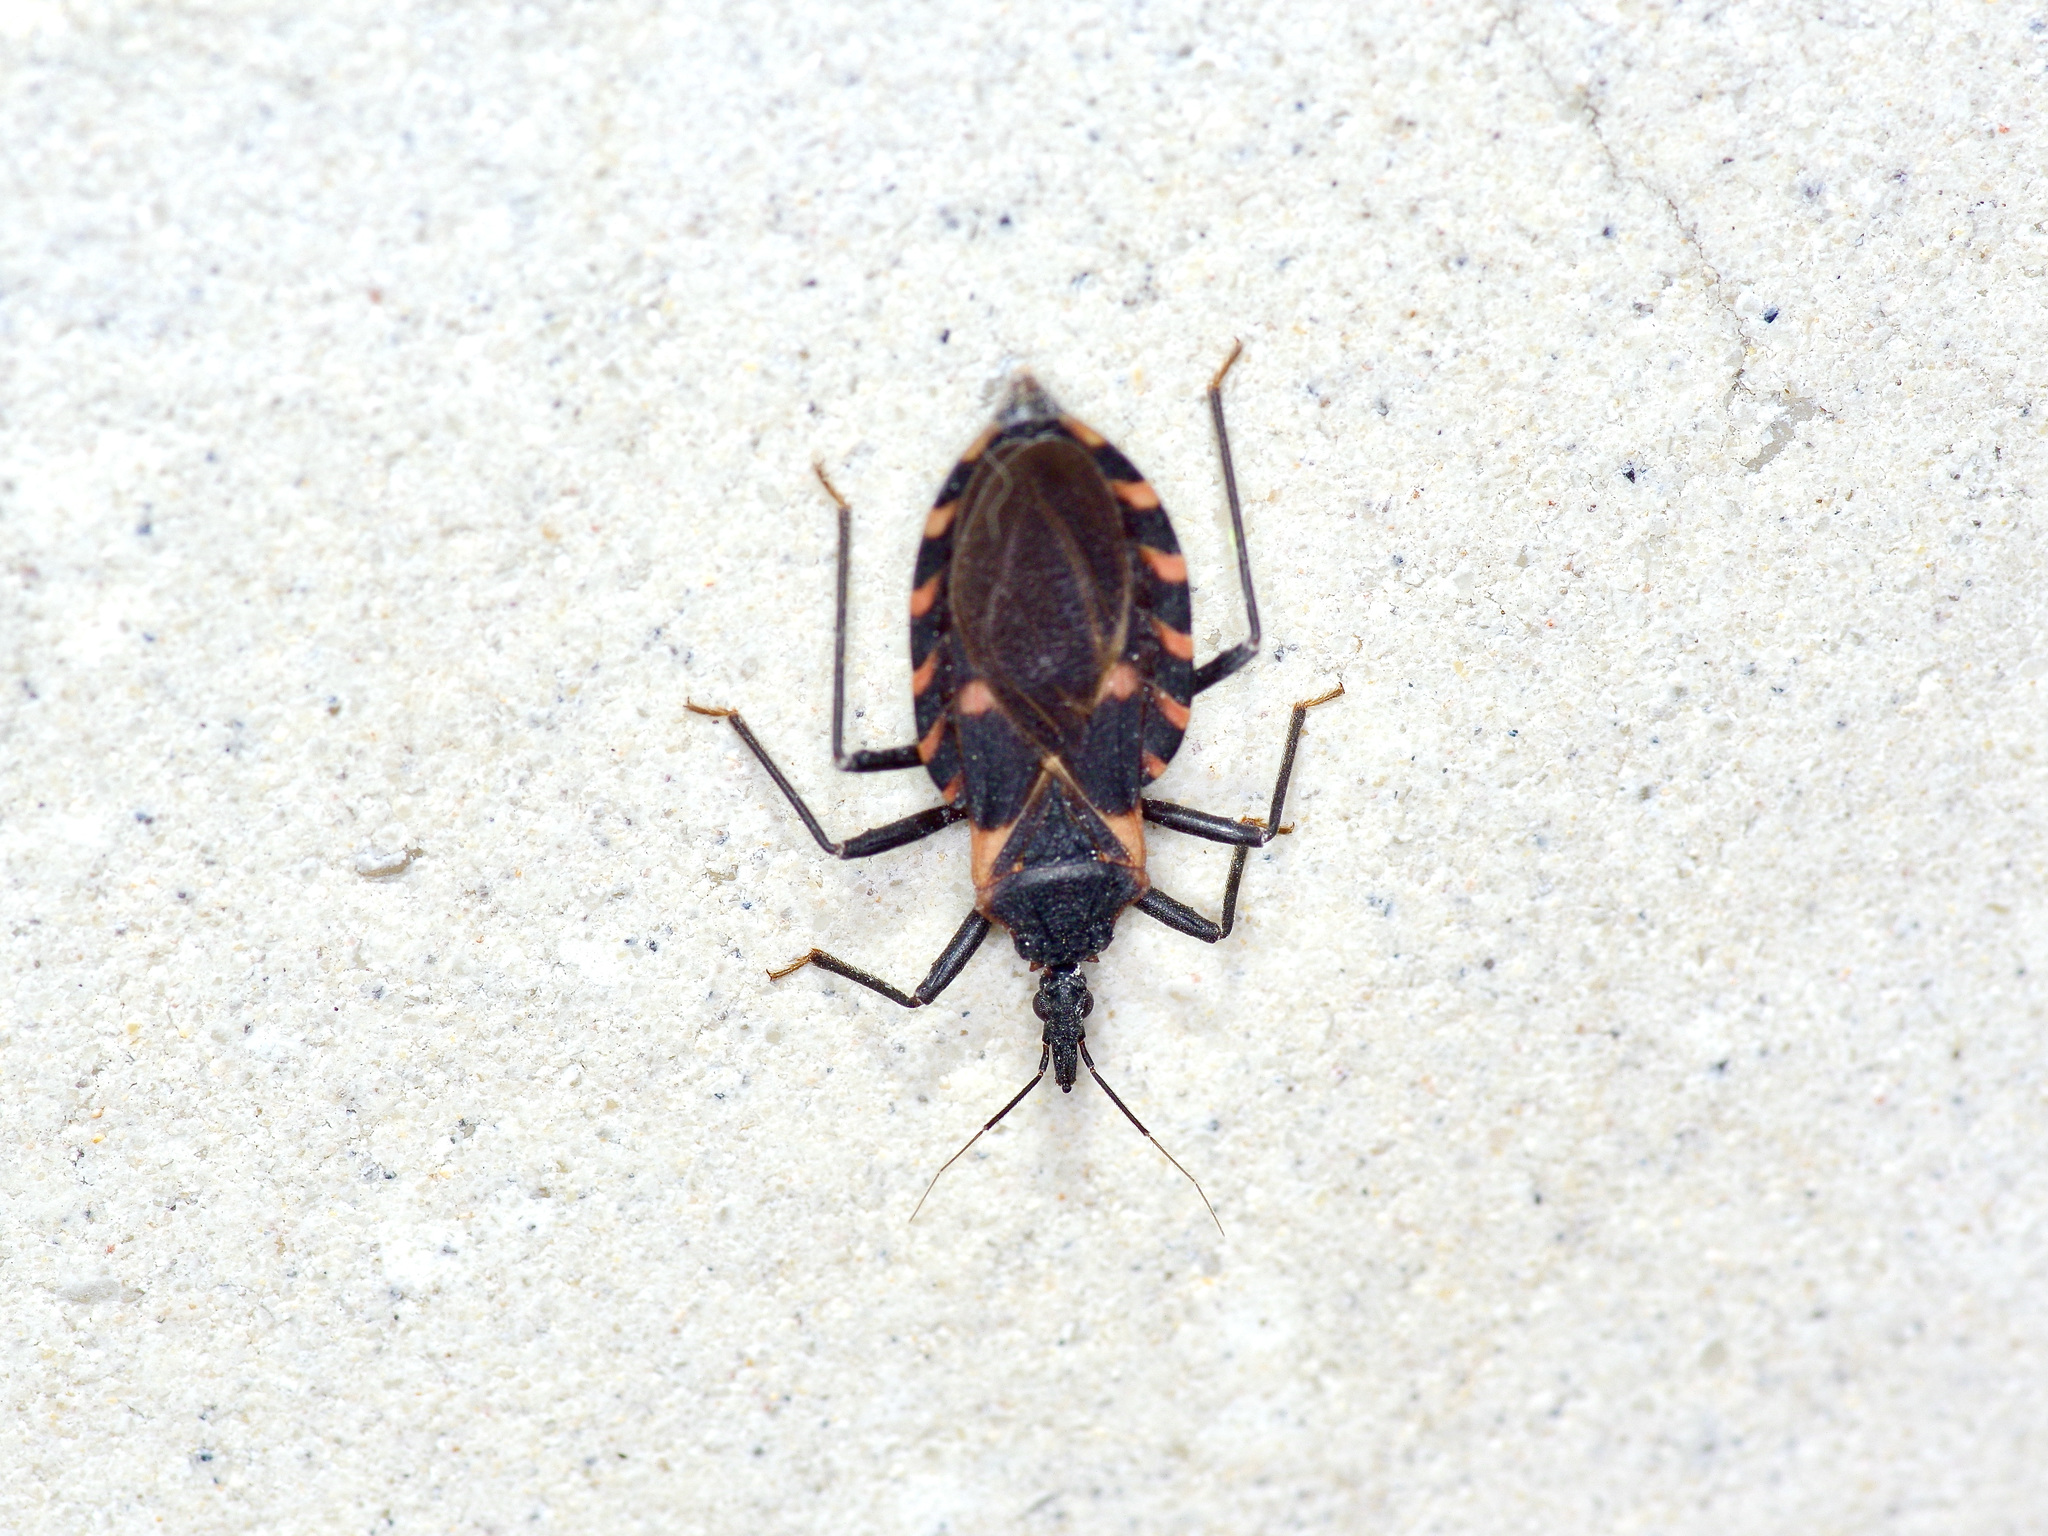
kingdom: Animalia
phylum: Arthropoda
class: Insecta
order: Hemiptera
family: Reduviidae
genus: Triatoma
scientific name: Triatoma sanguisuga
